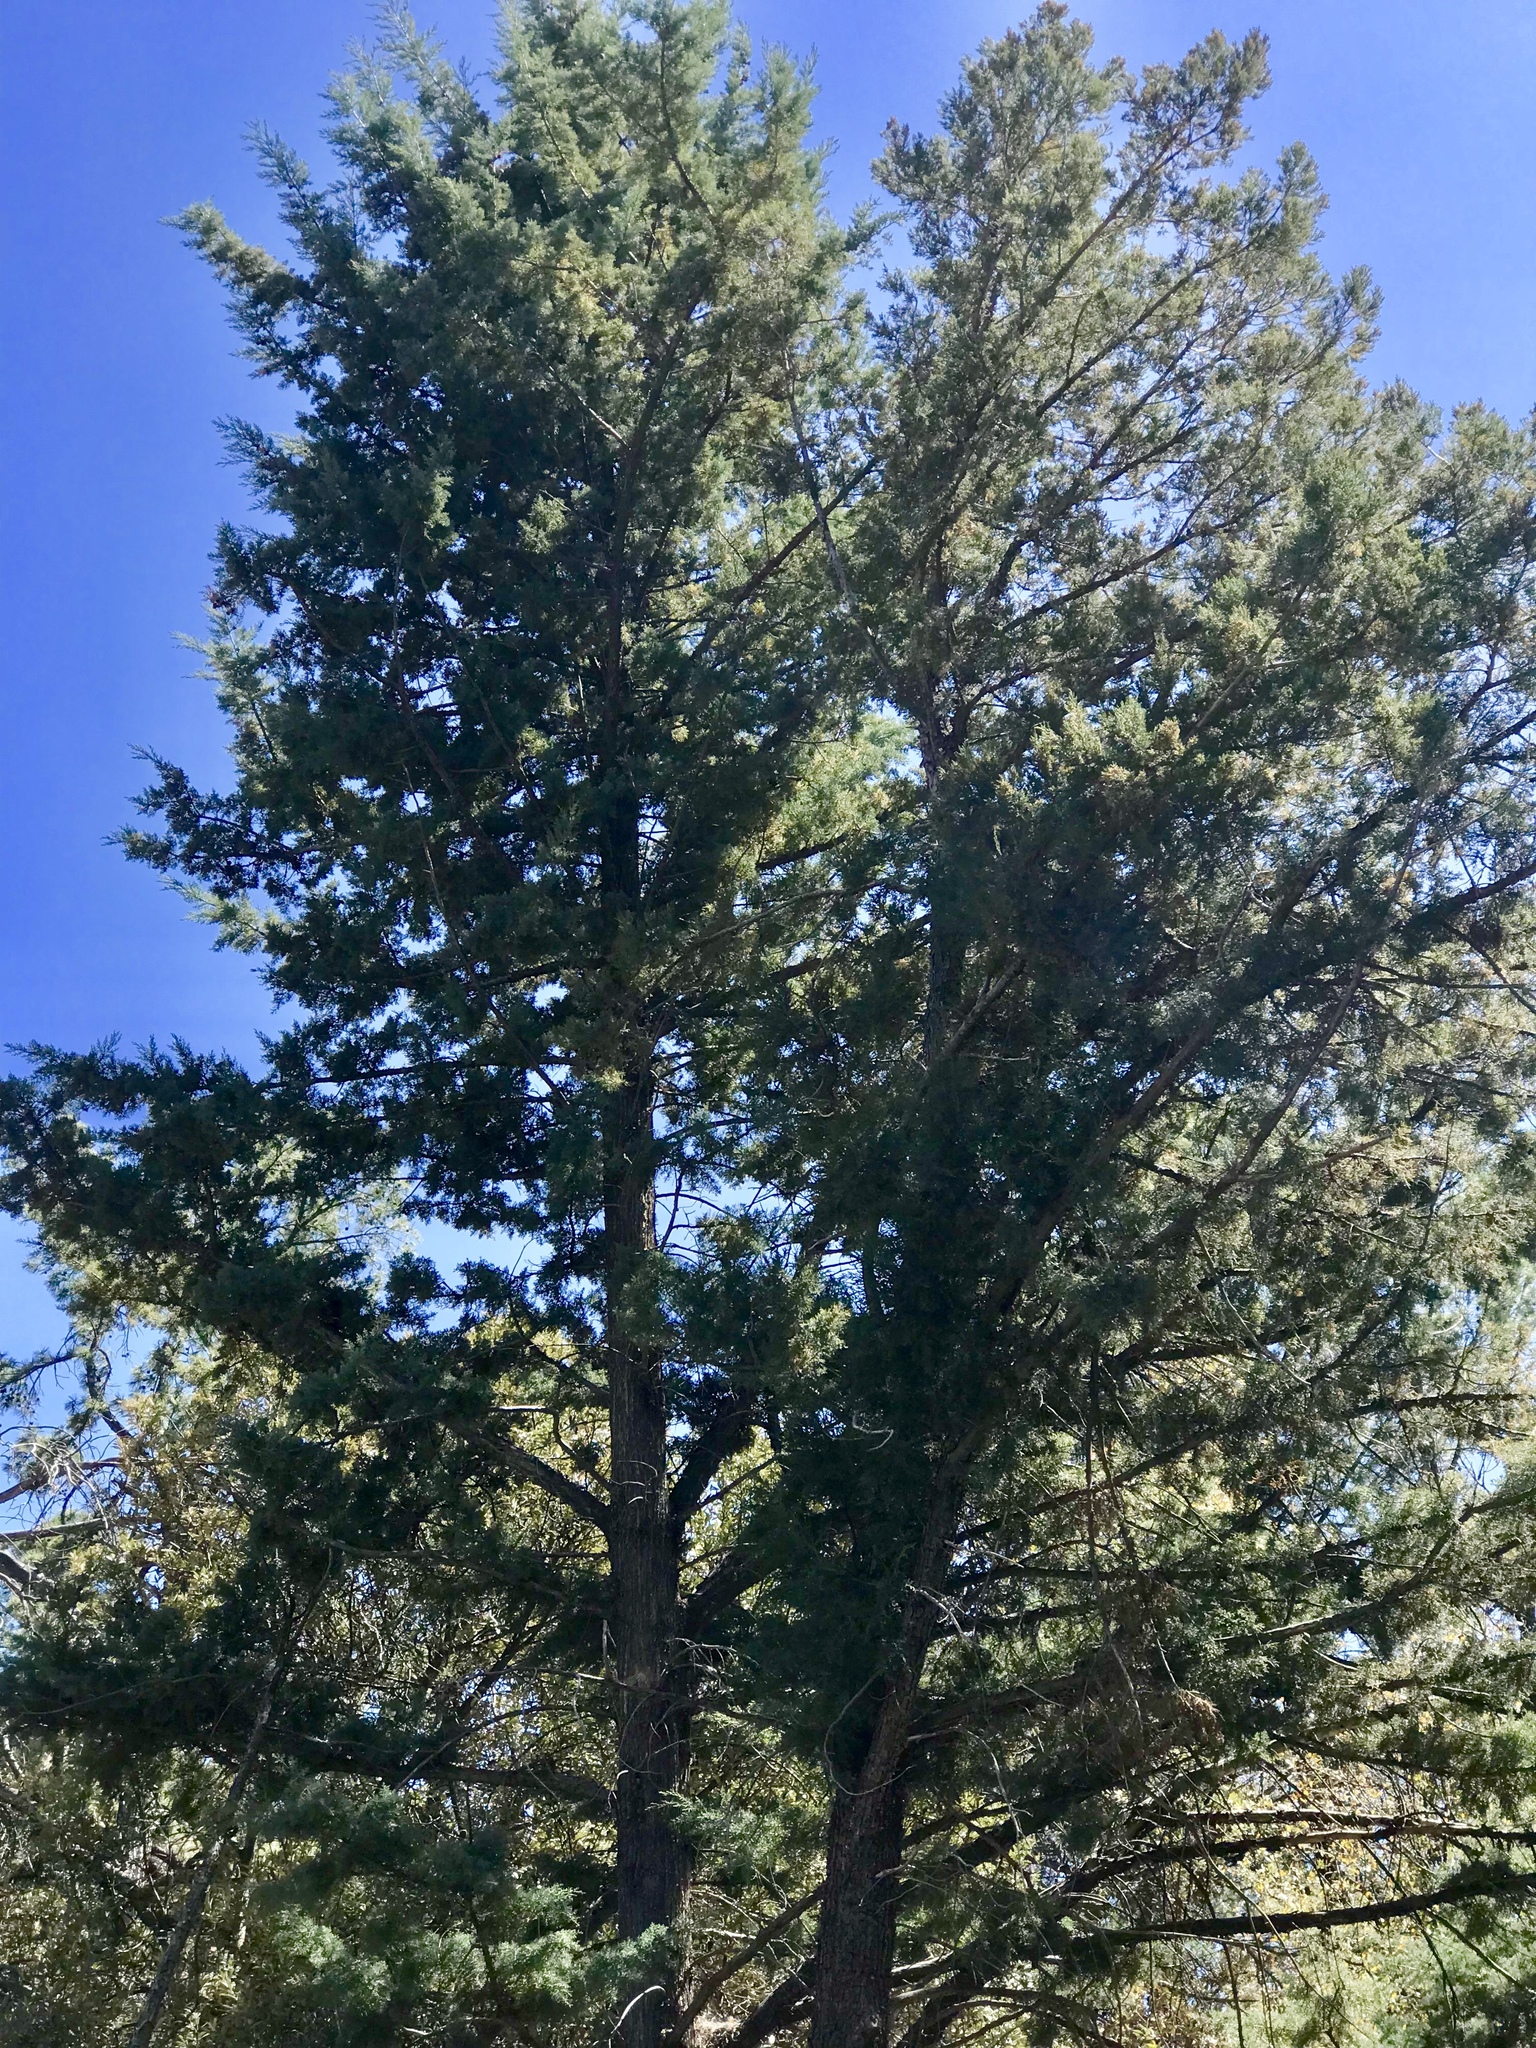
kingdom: Plantae
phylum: Tracheophyta
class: Pinopsida
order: Pinales
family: Cupressaceae
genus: Cupressus
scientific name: Cupressus arizonica
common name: Arizona cypress
